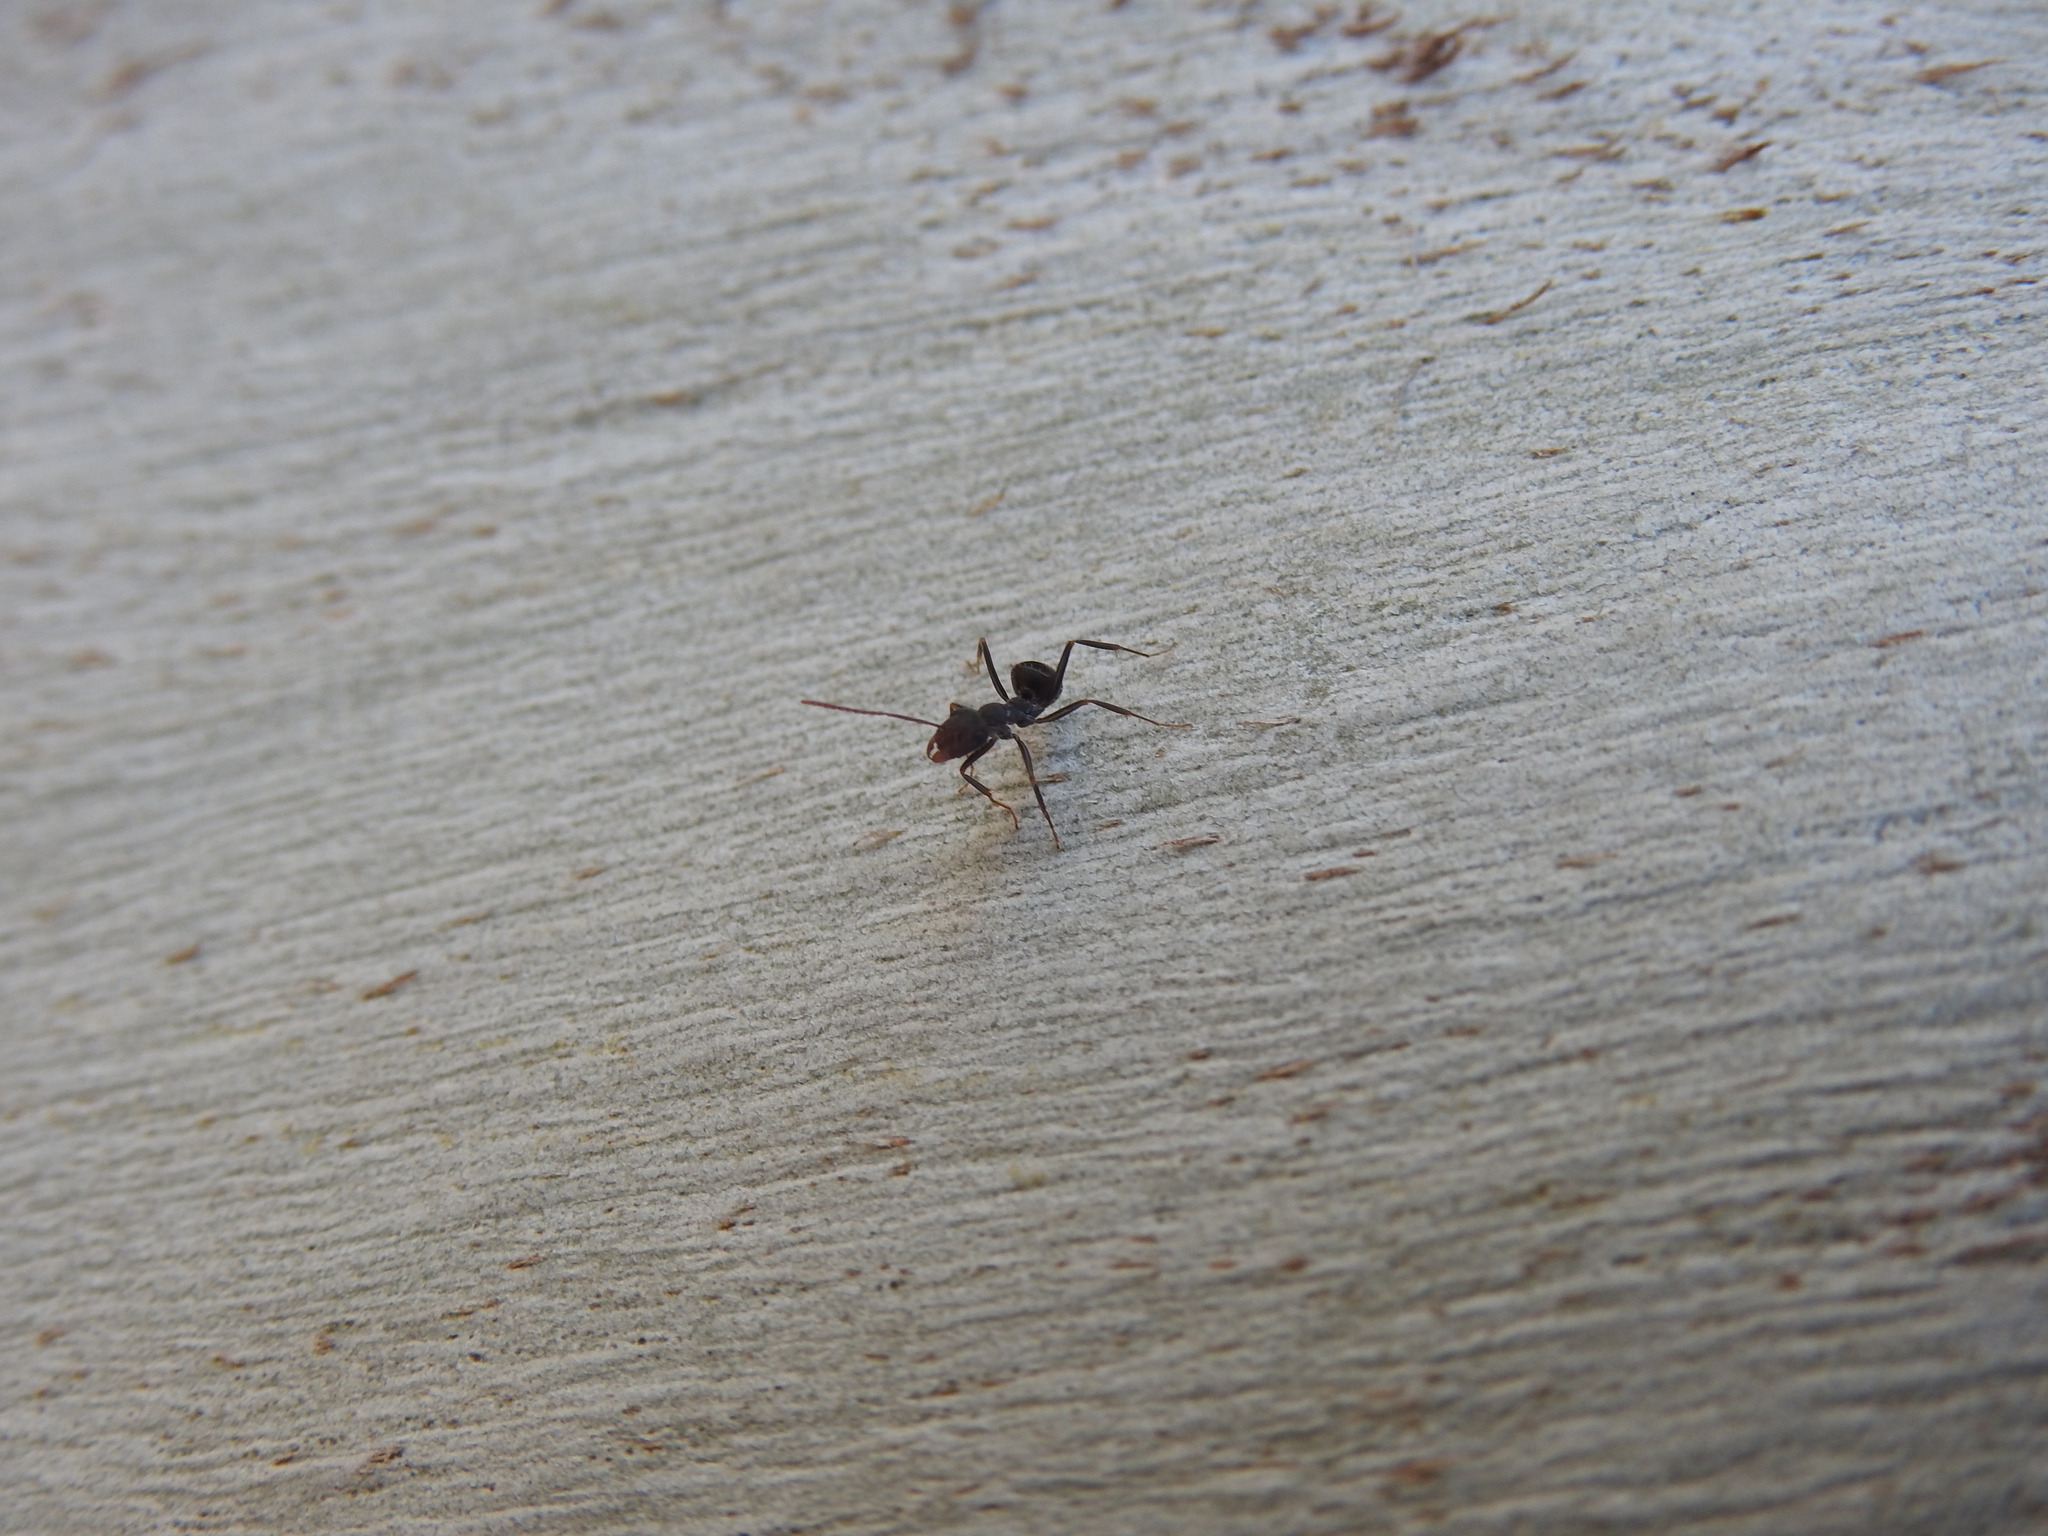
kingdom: Animalia
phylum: Arthropoda
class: Insecta
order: Hymenoptera
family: Formicidae
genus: Formica
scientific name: Formica subrufa
